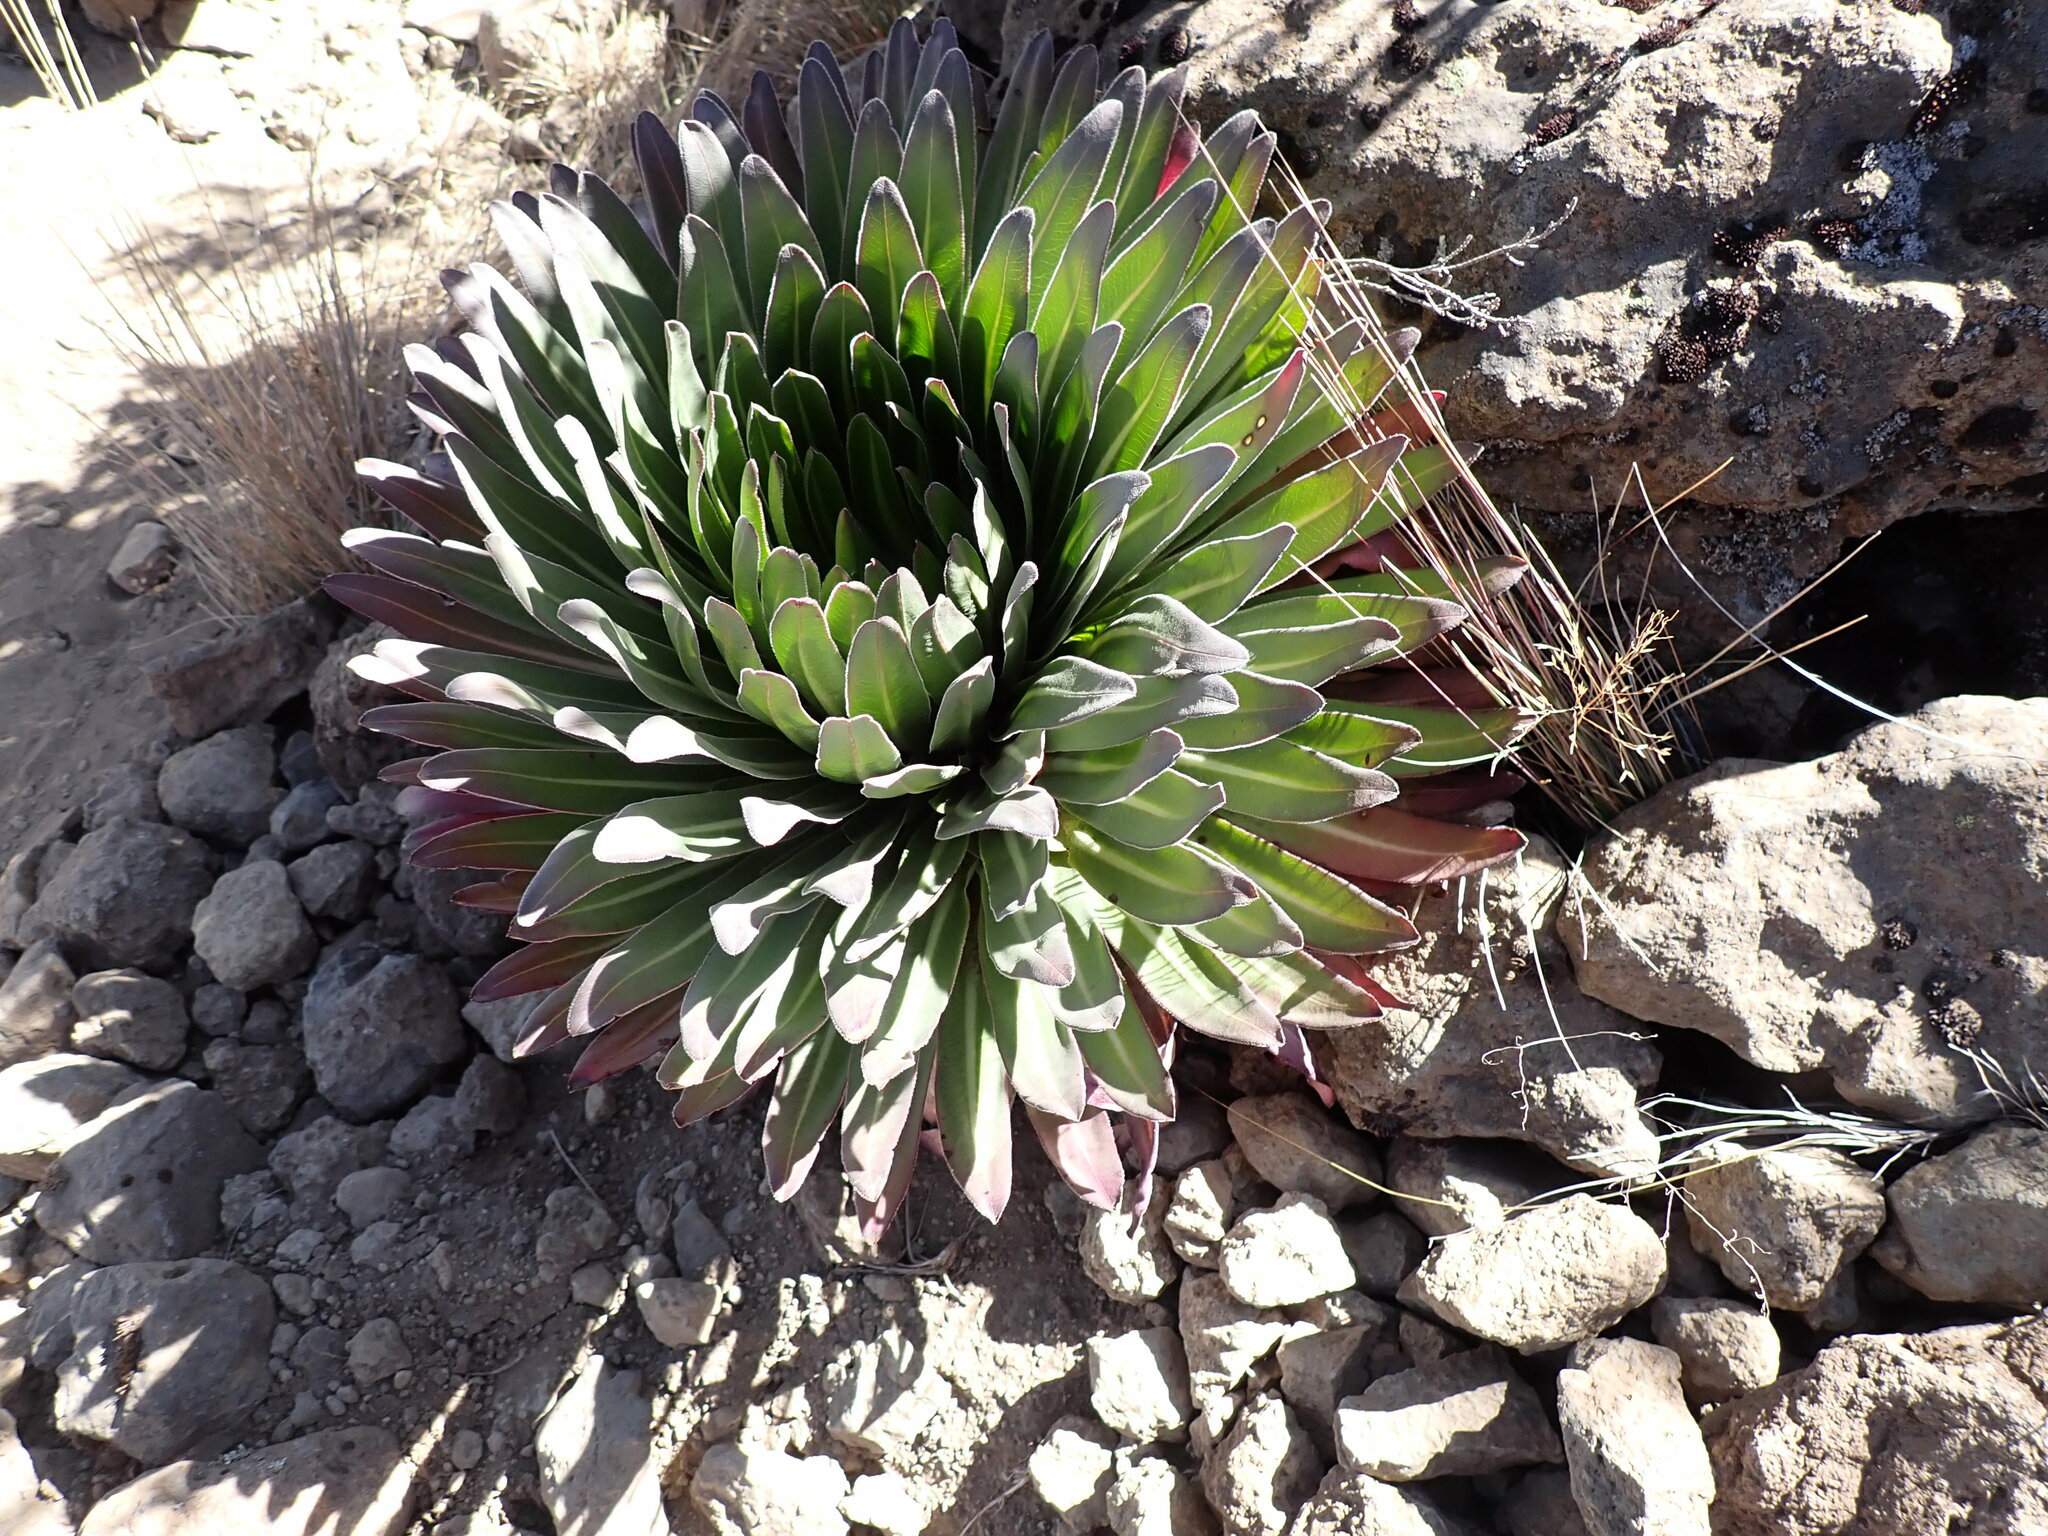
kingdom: Plantae
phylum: Tracheophyta
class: Magnoliopsida
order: Asterales
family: Campanulaceae
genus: Lobelia
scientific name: Lobelia deckenii
